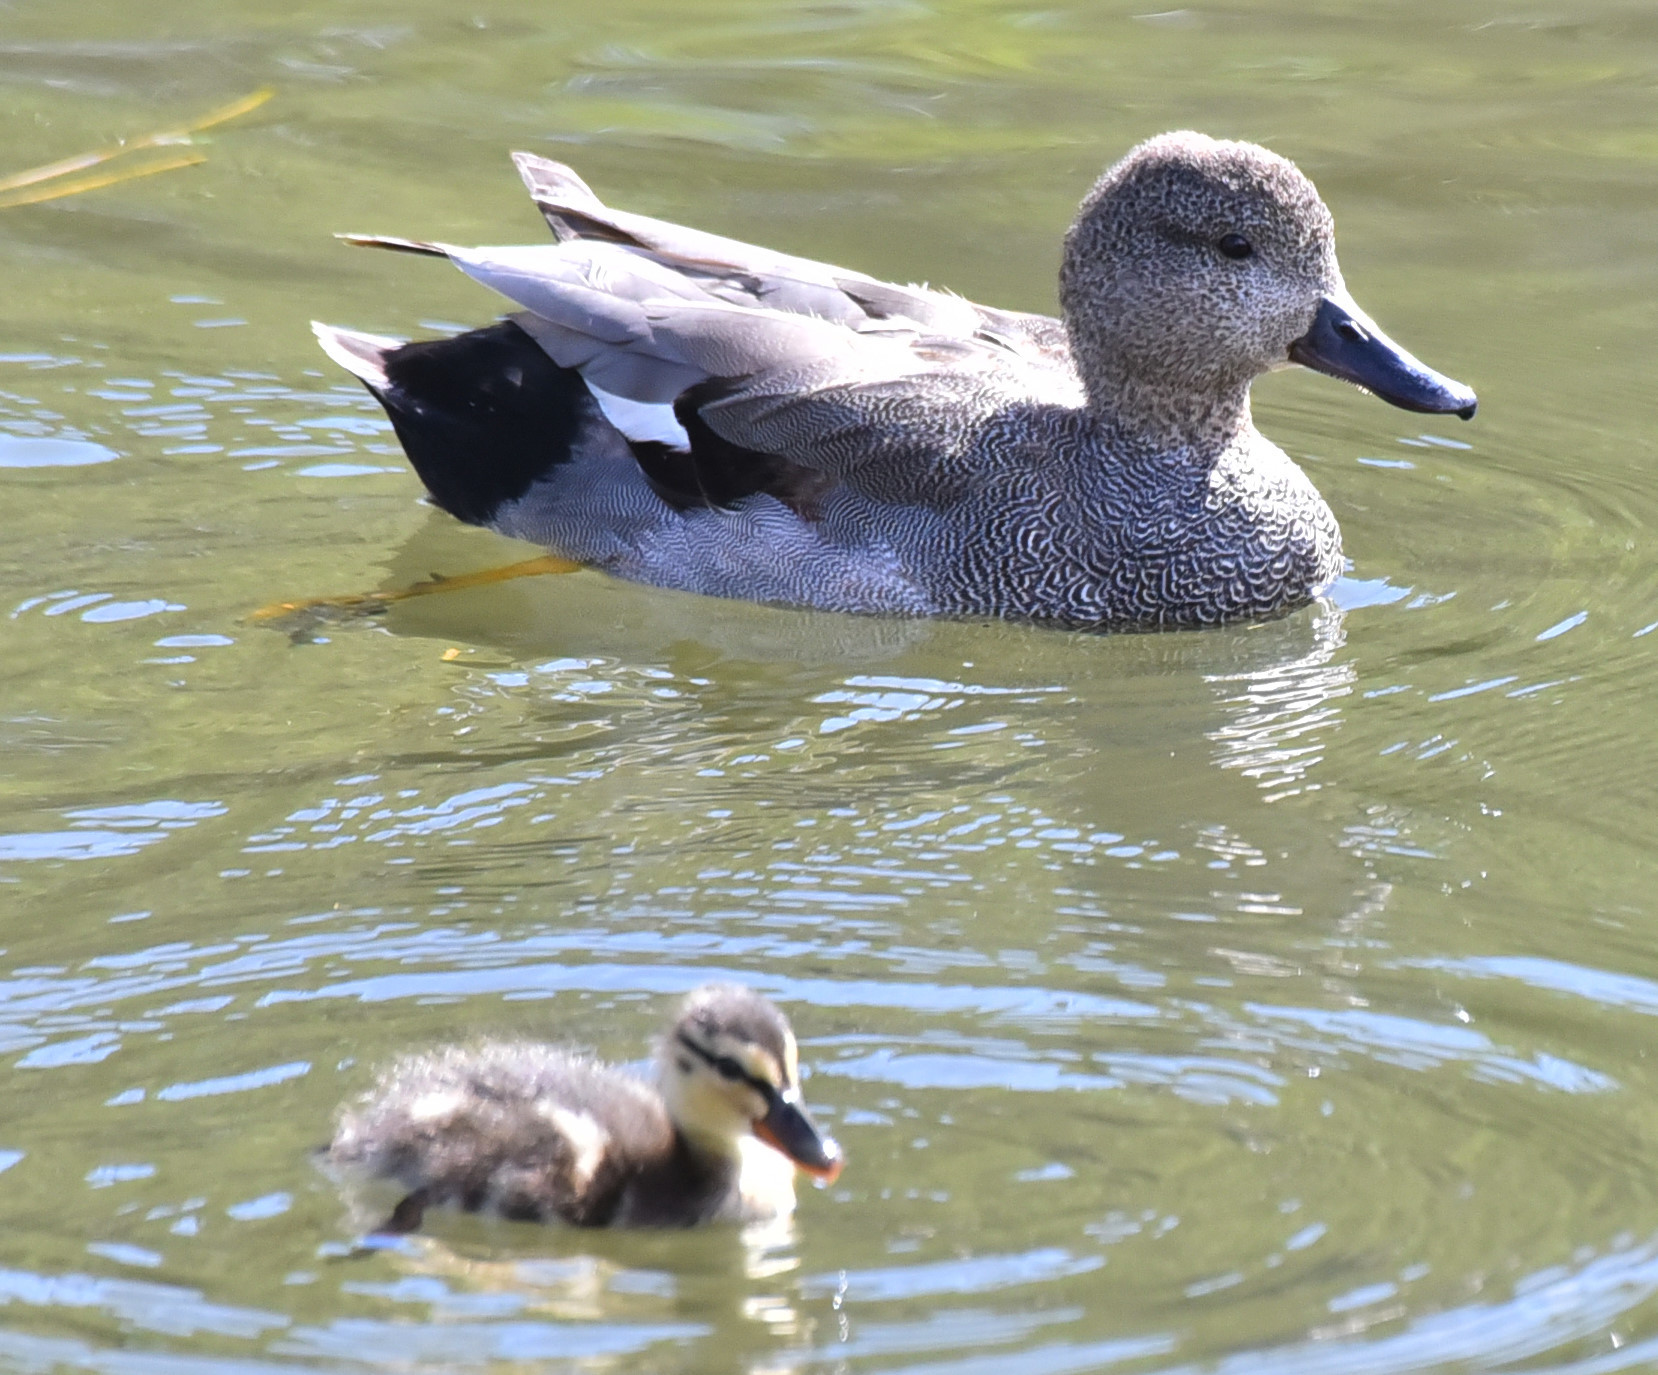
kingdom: Animalia
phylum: Chordata
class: Aves
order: Anseriformes
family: Anatidae
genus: Mareca
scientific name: Mareca strepera
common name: Gadwall
